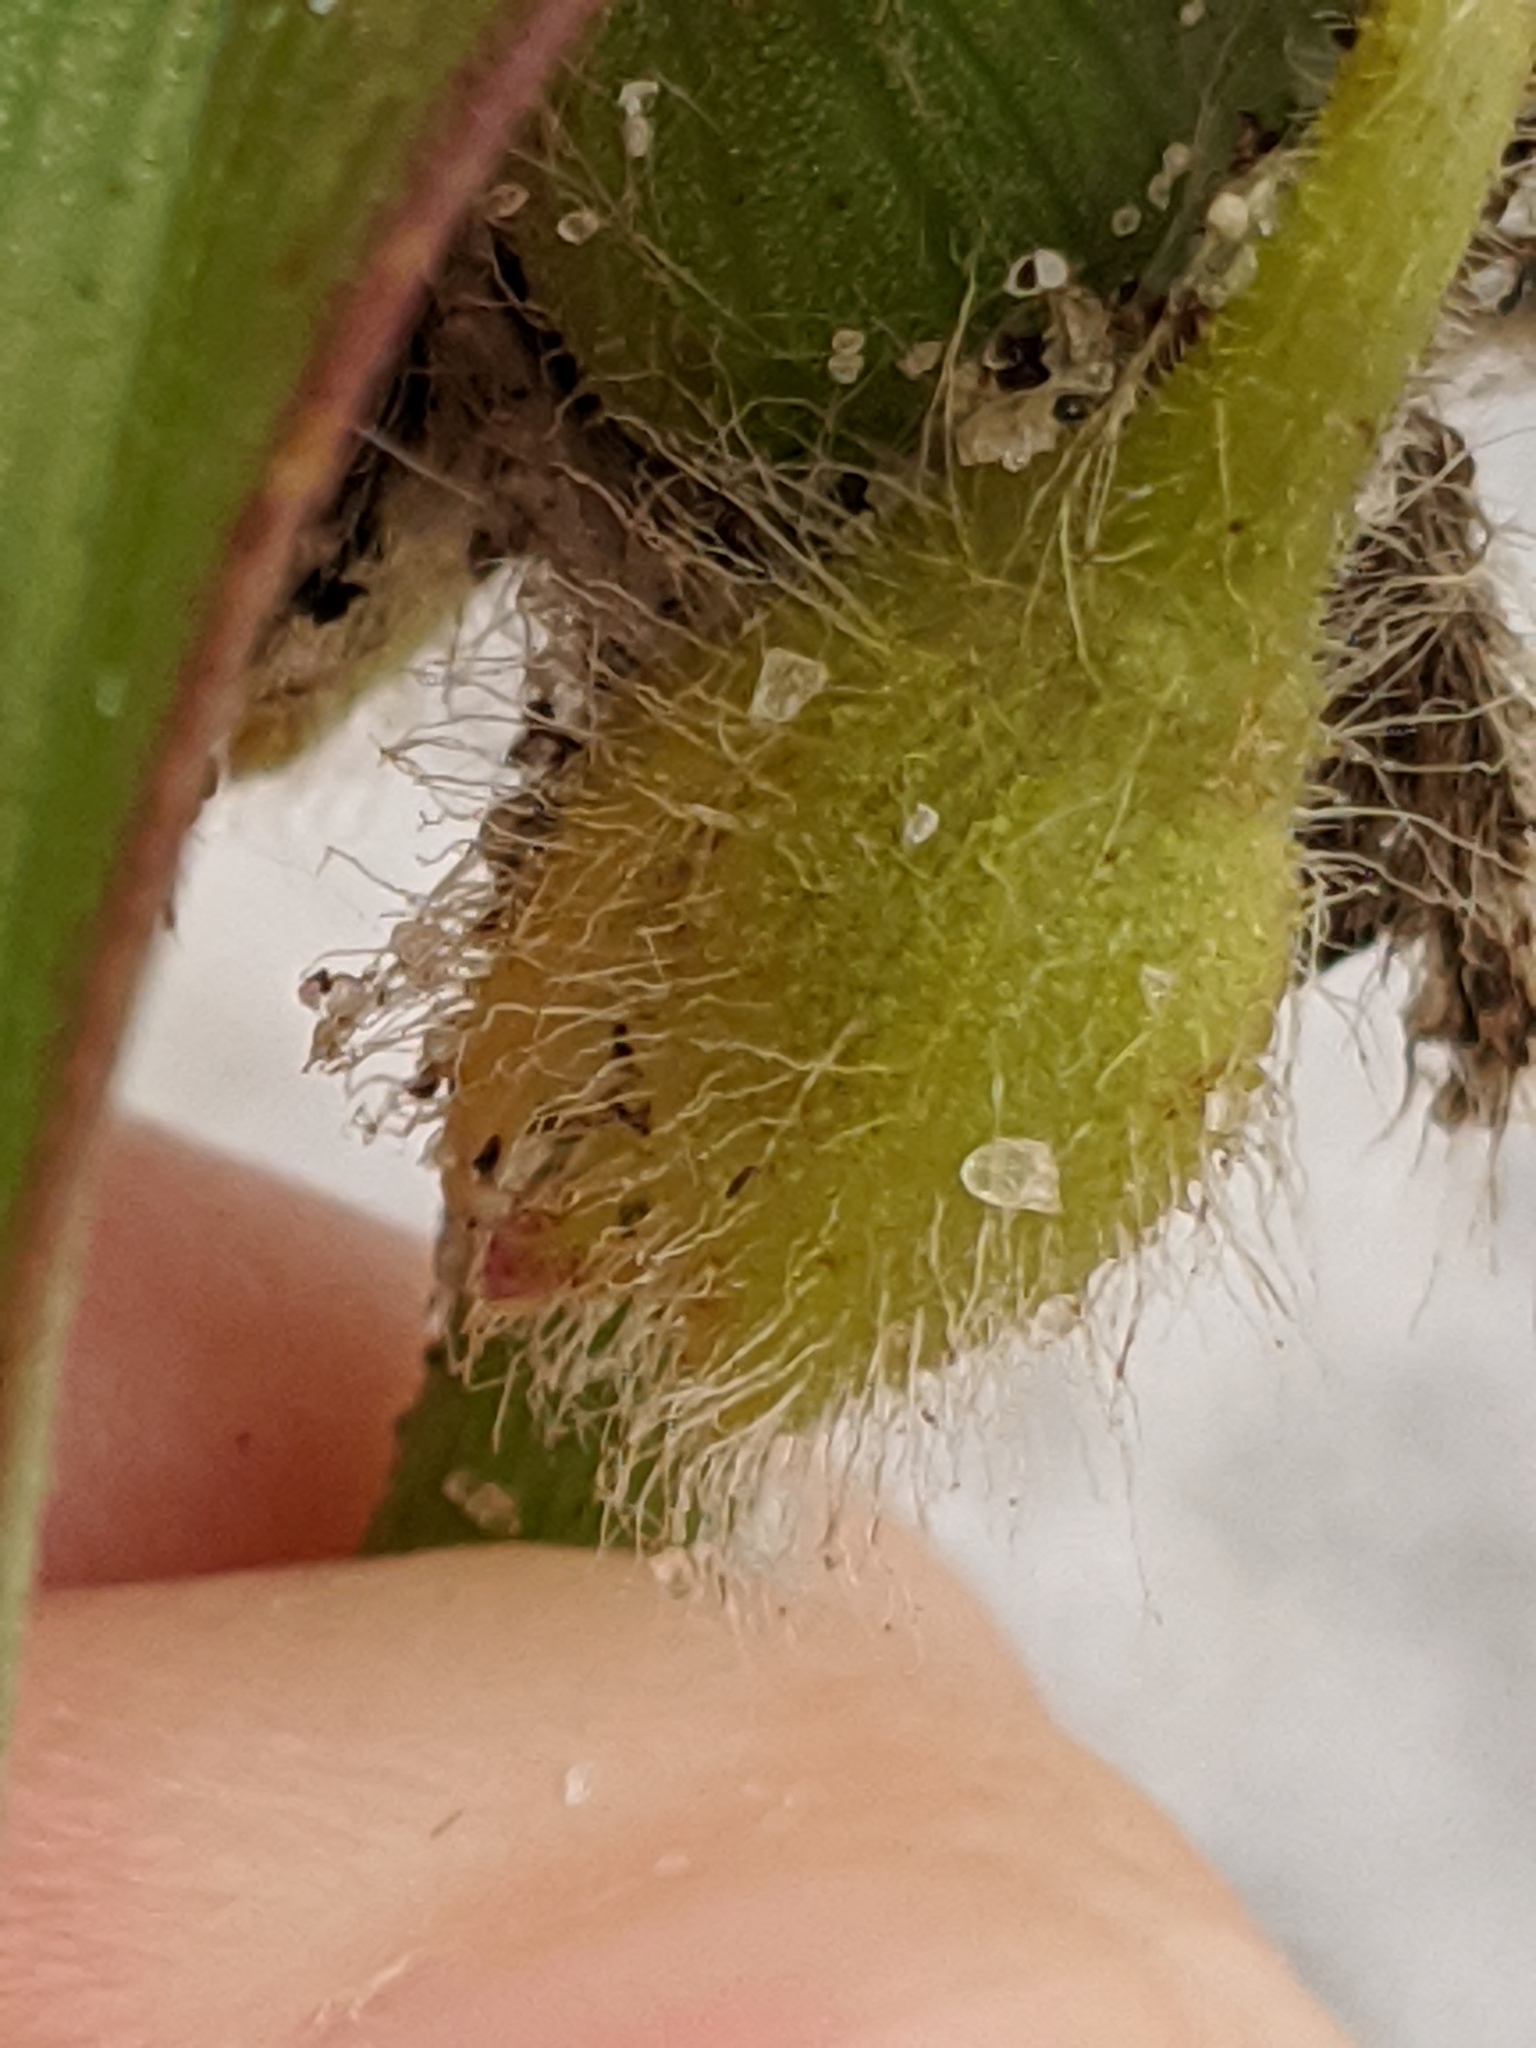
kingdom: Plantae
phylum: Tracheophyta
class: Liliopsida
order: Commelinales
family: Commelinaceae
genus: Tradescantia
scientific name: Tradescantia hirsutiflora
